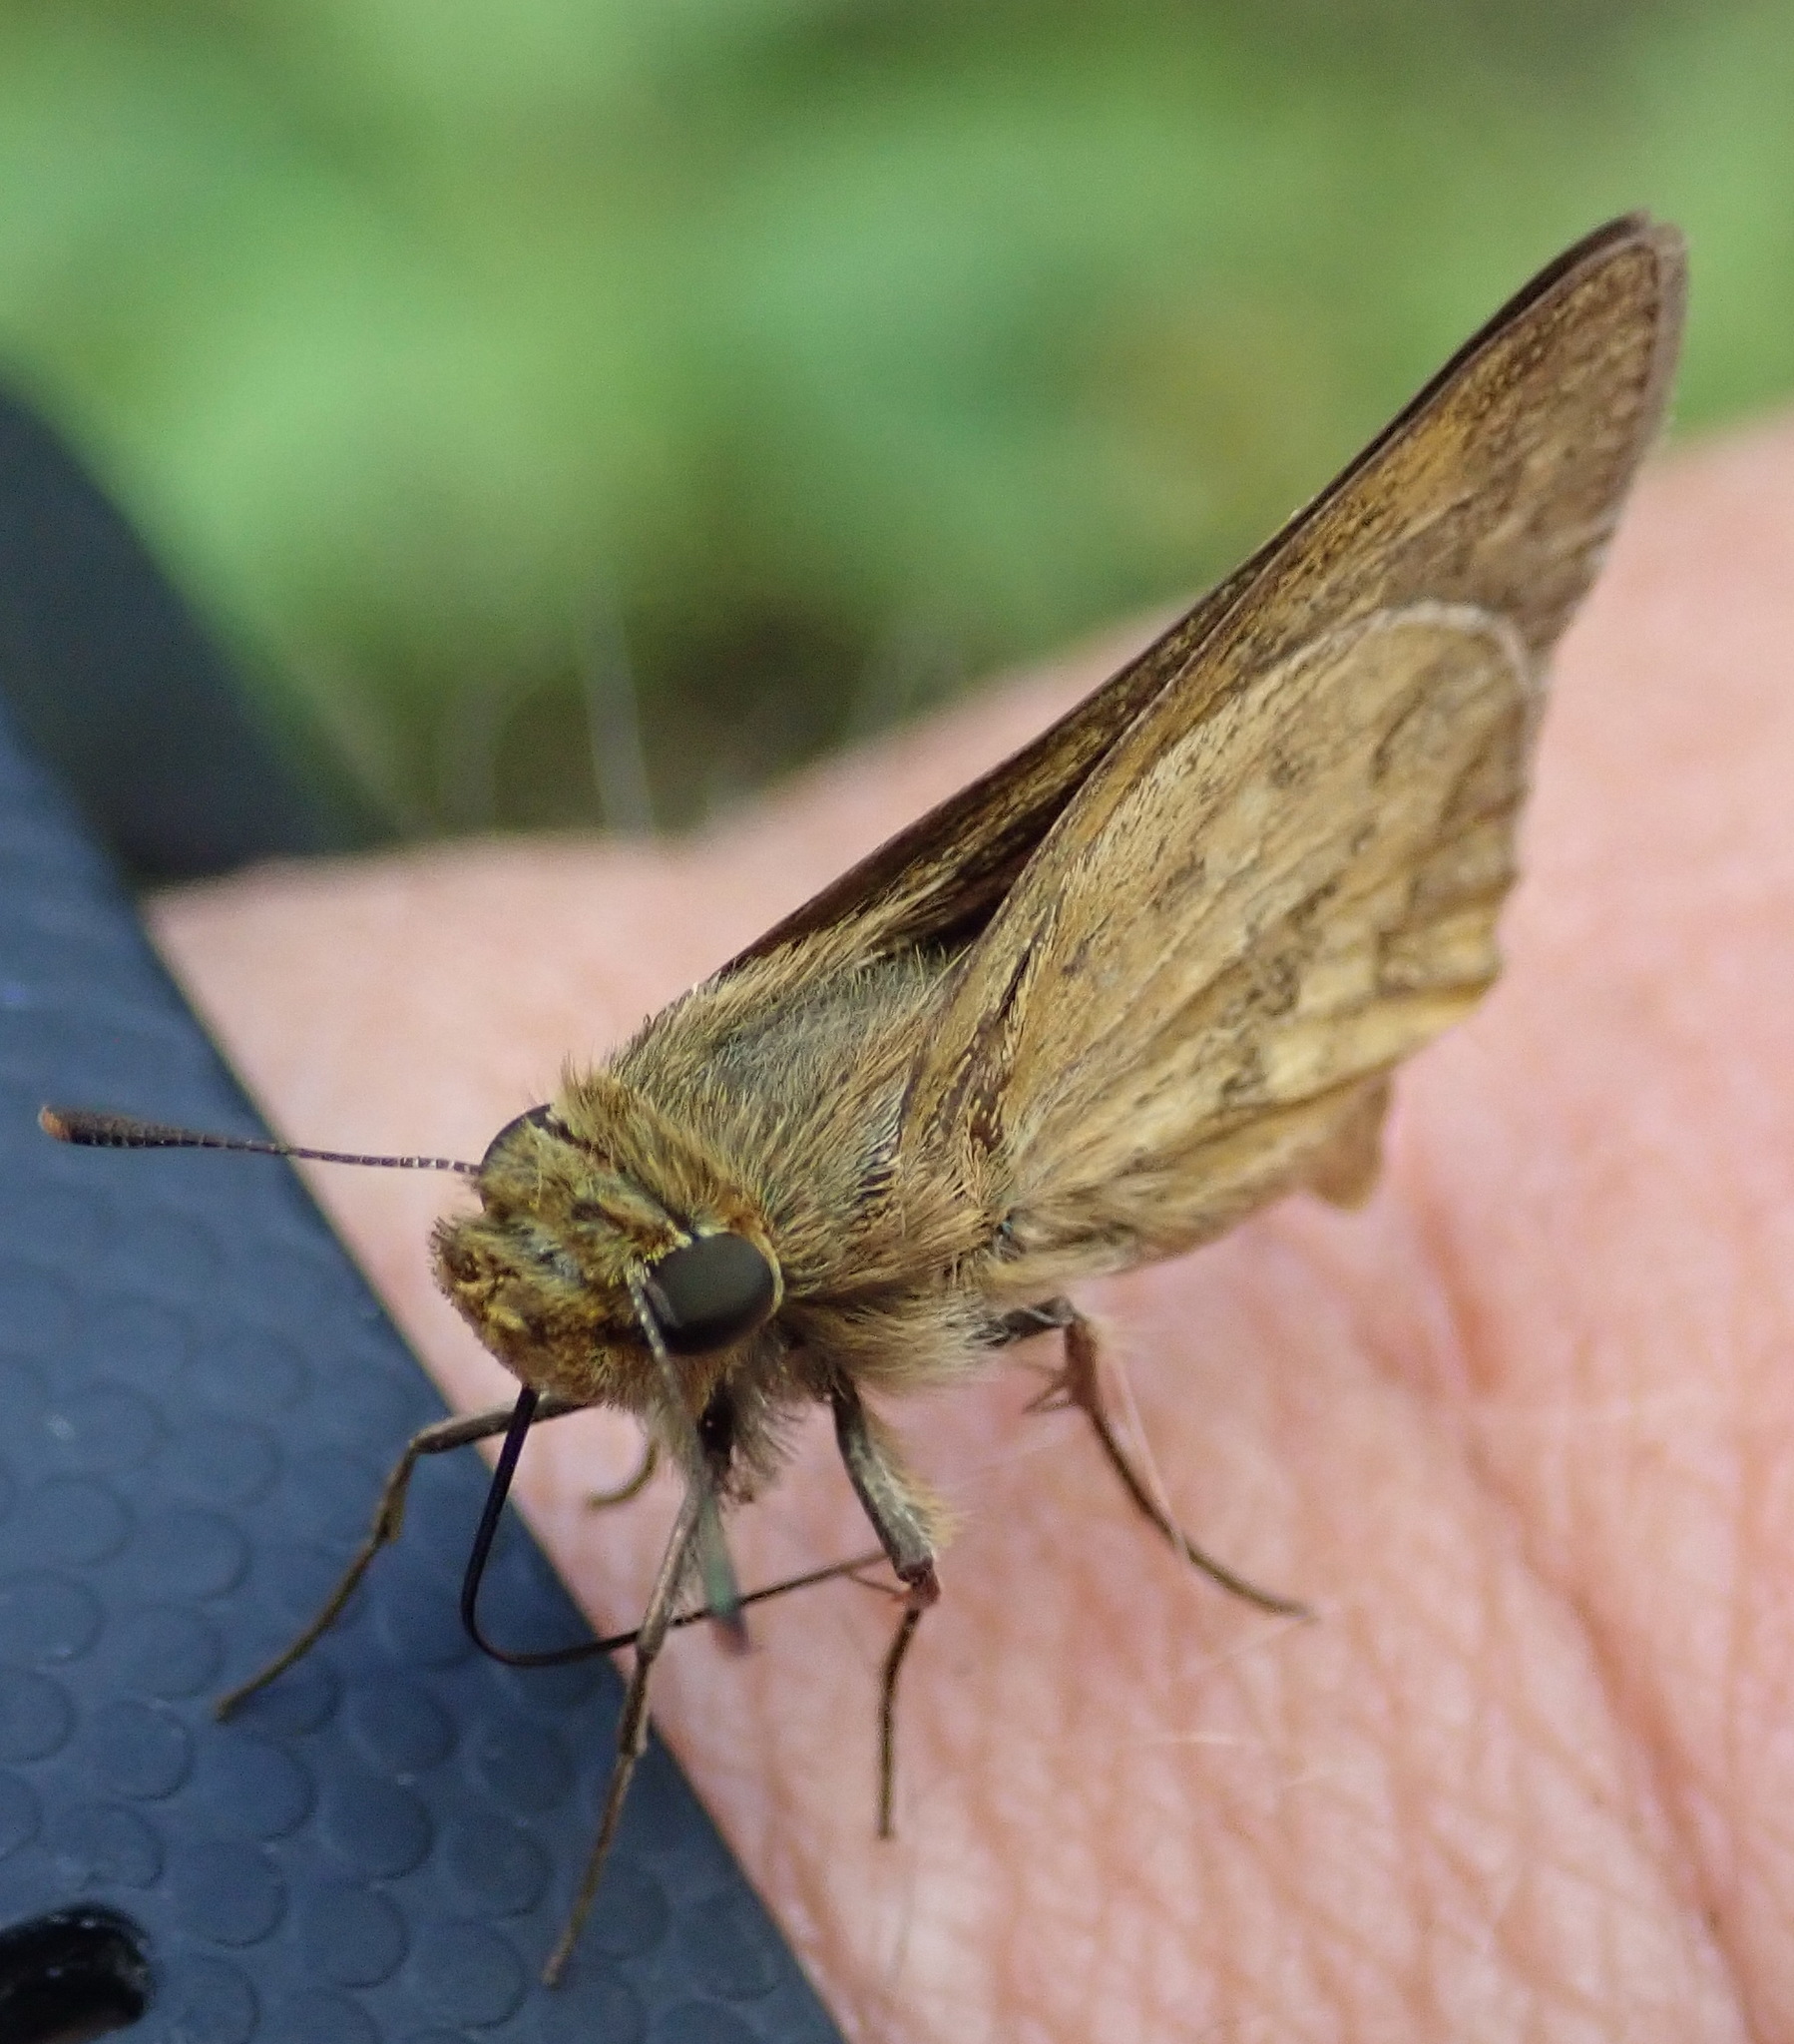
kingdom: Animalia
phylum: Arthropoda
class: Insecta
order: Hymenoptera
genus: Afrogenes
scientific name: Afrogenes
